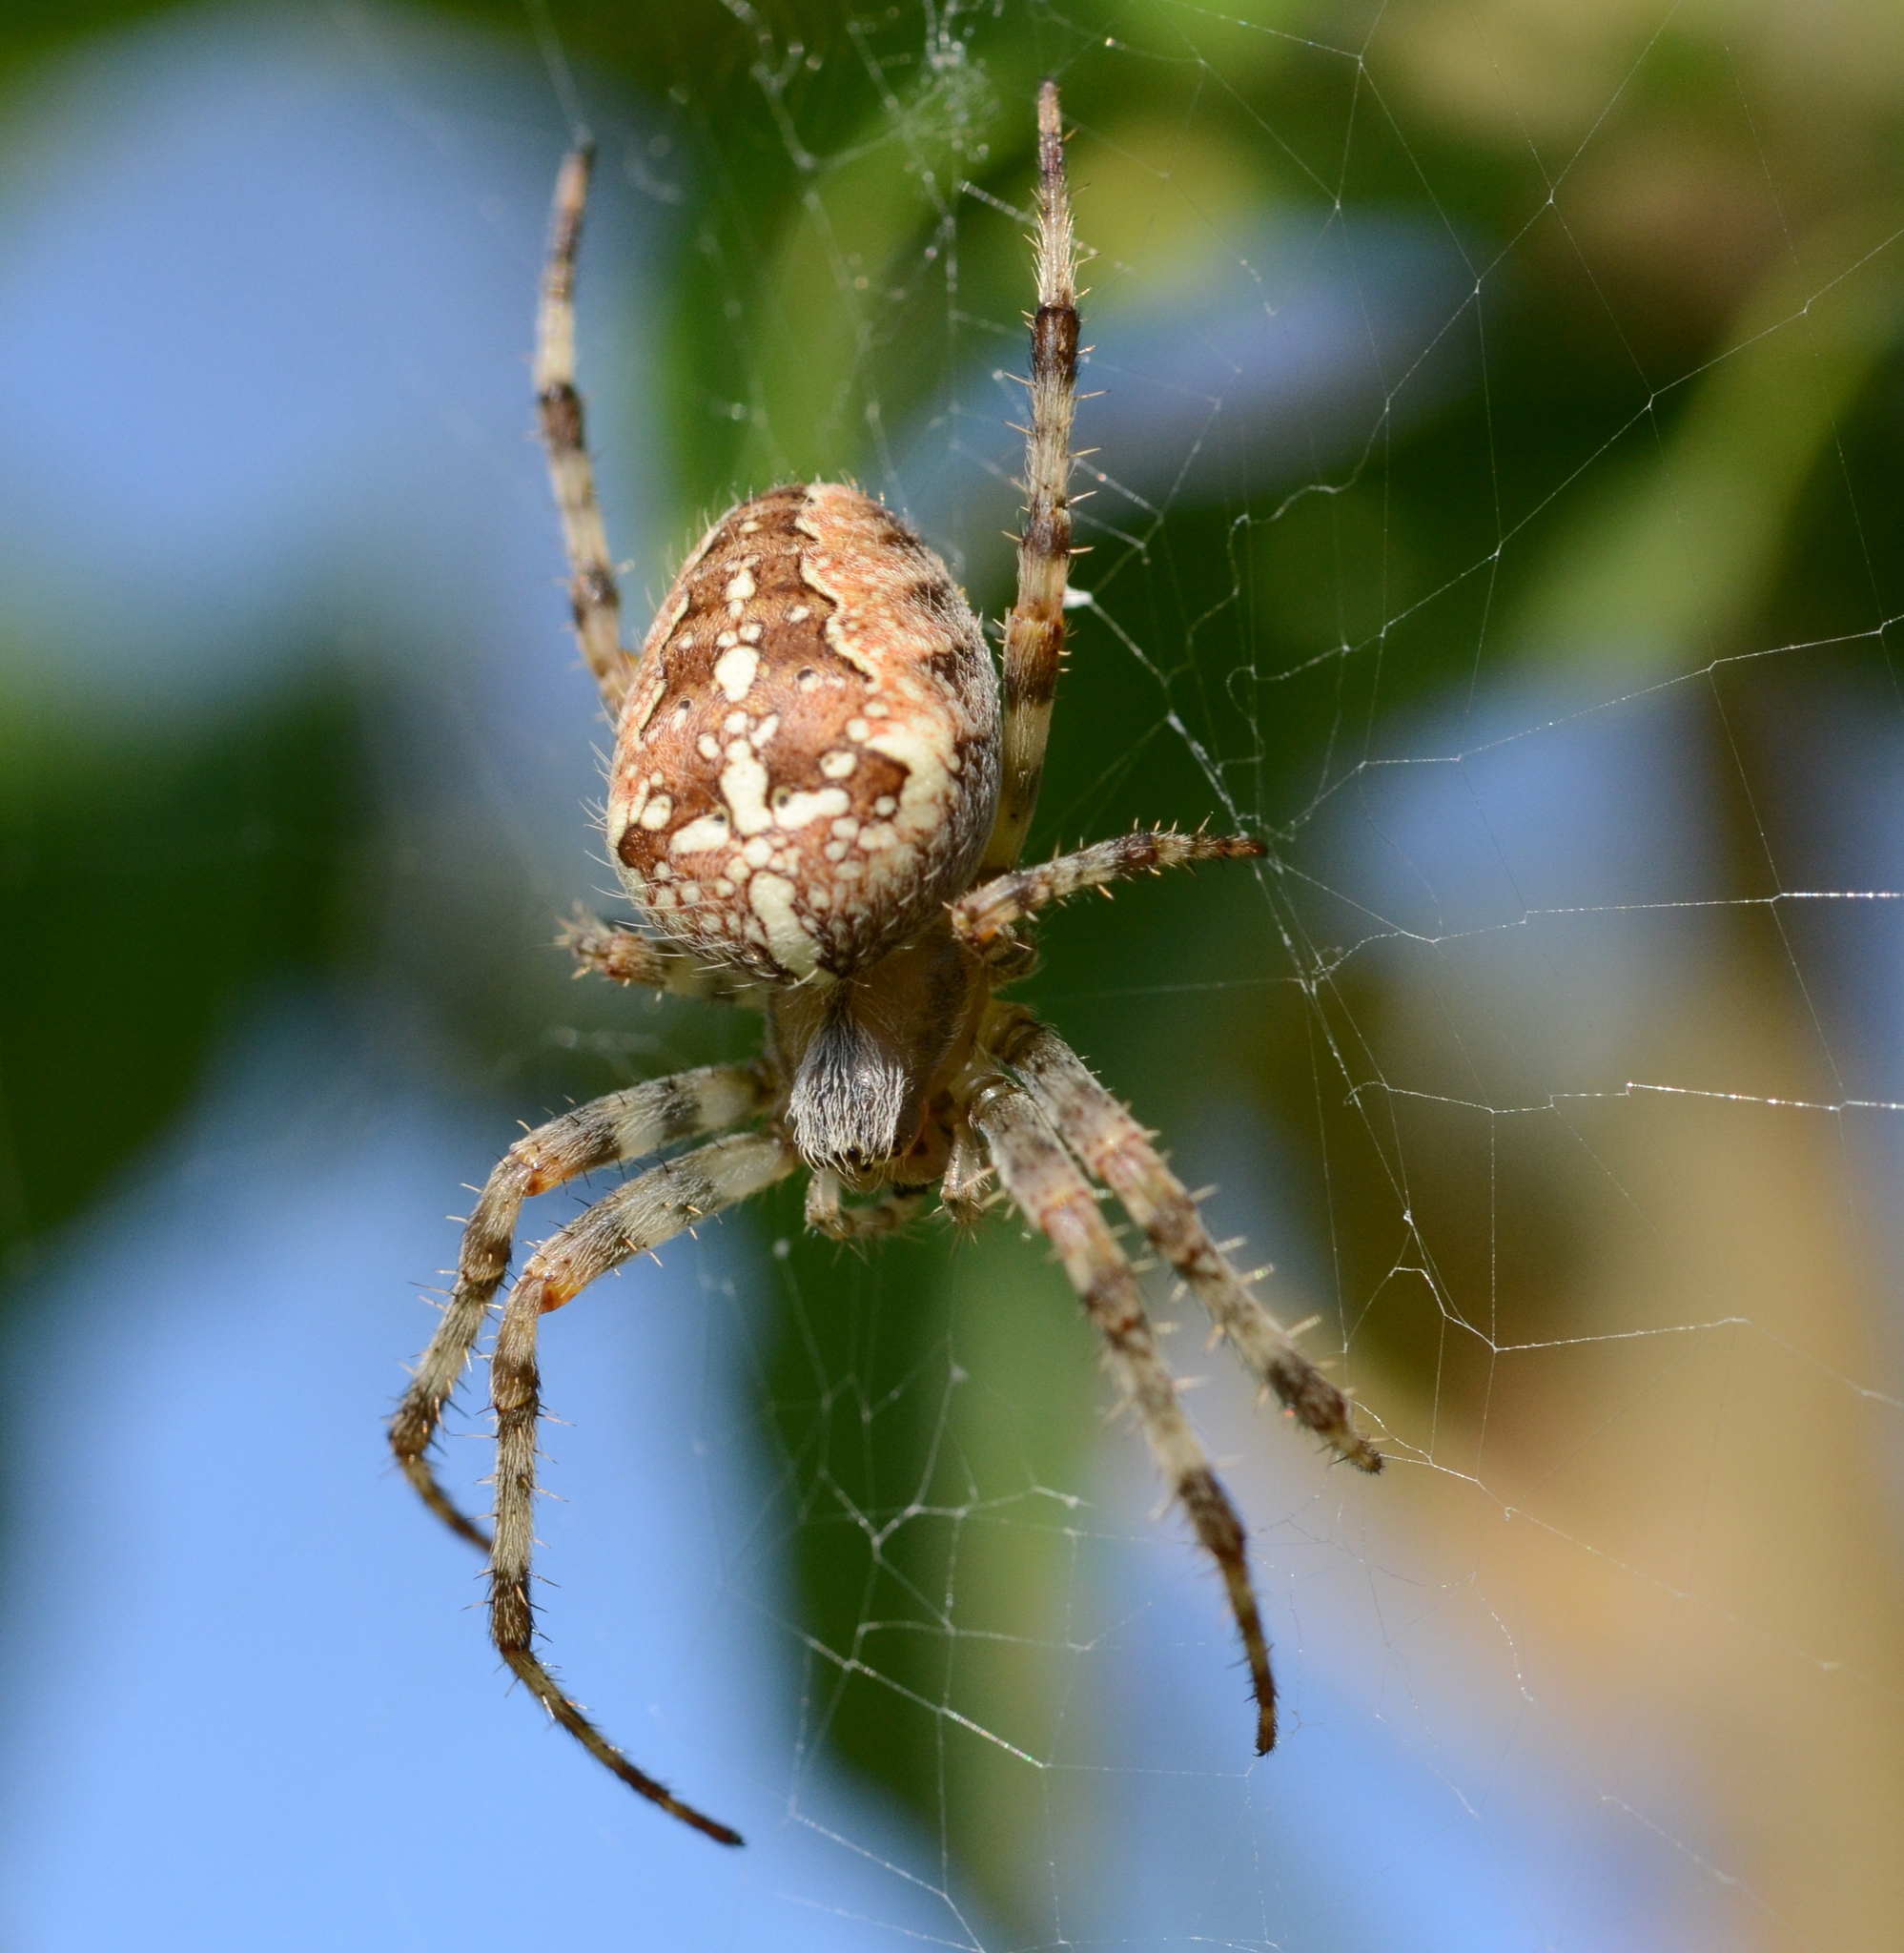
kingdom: Animalia
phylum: Arthropoda
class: Arachnida
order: Araneae
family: Araneidae
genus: Araneus
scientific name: Araneus diadematus
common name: Cross orbweaver
